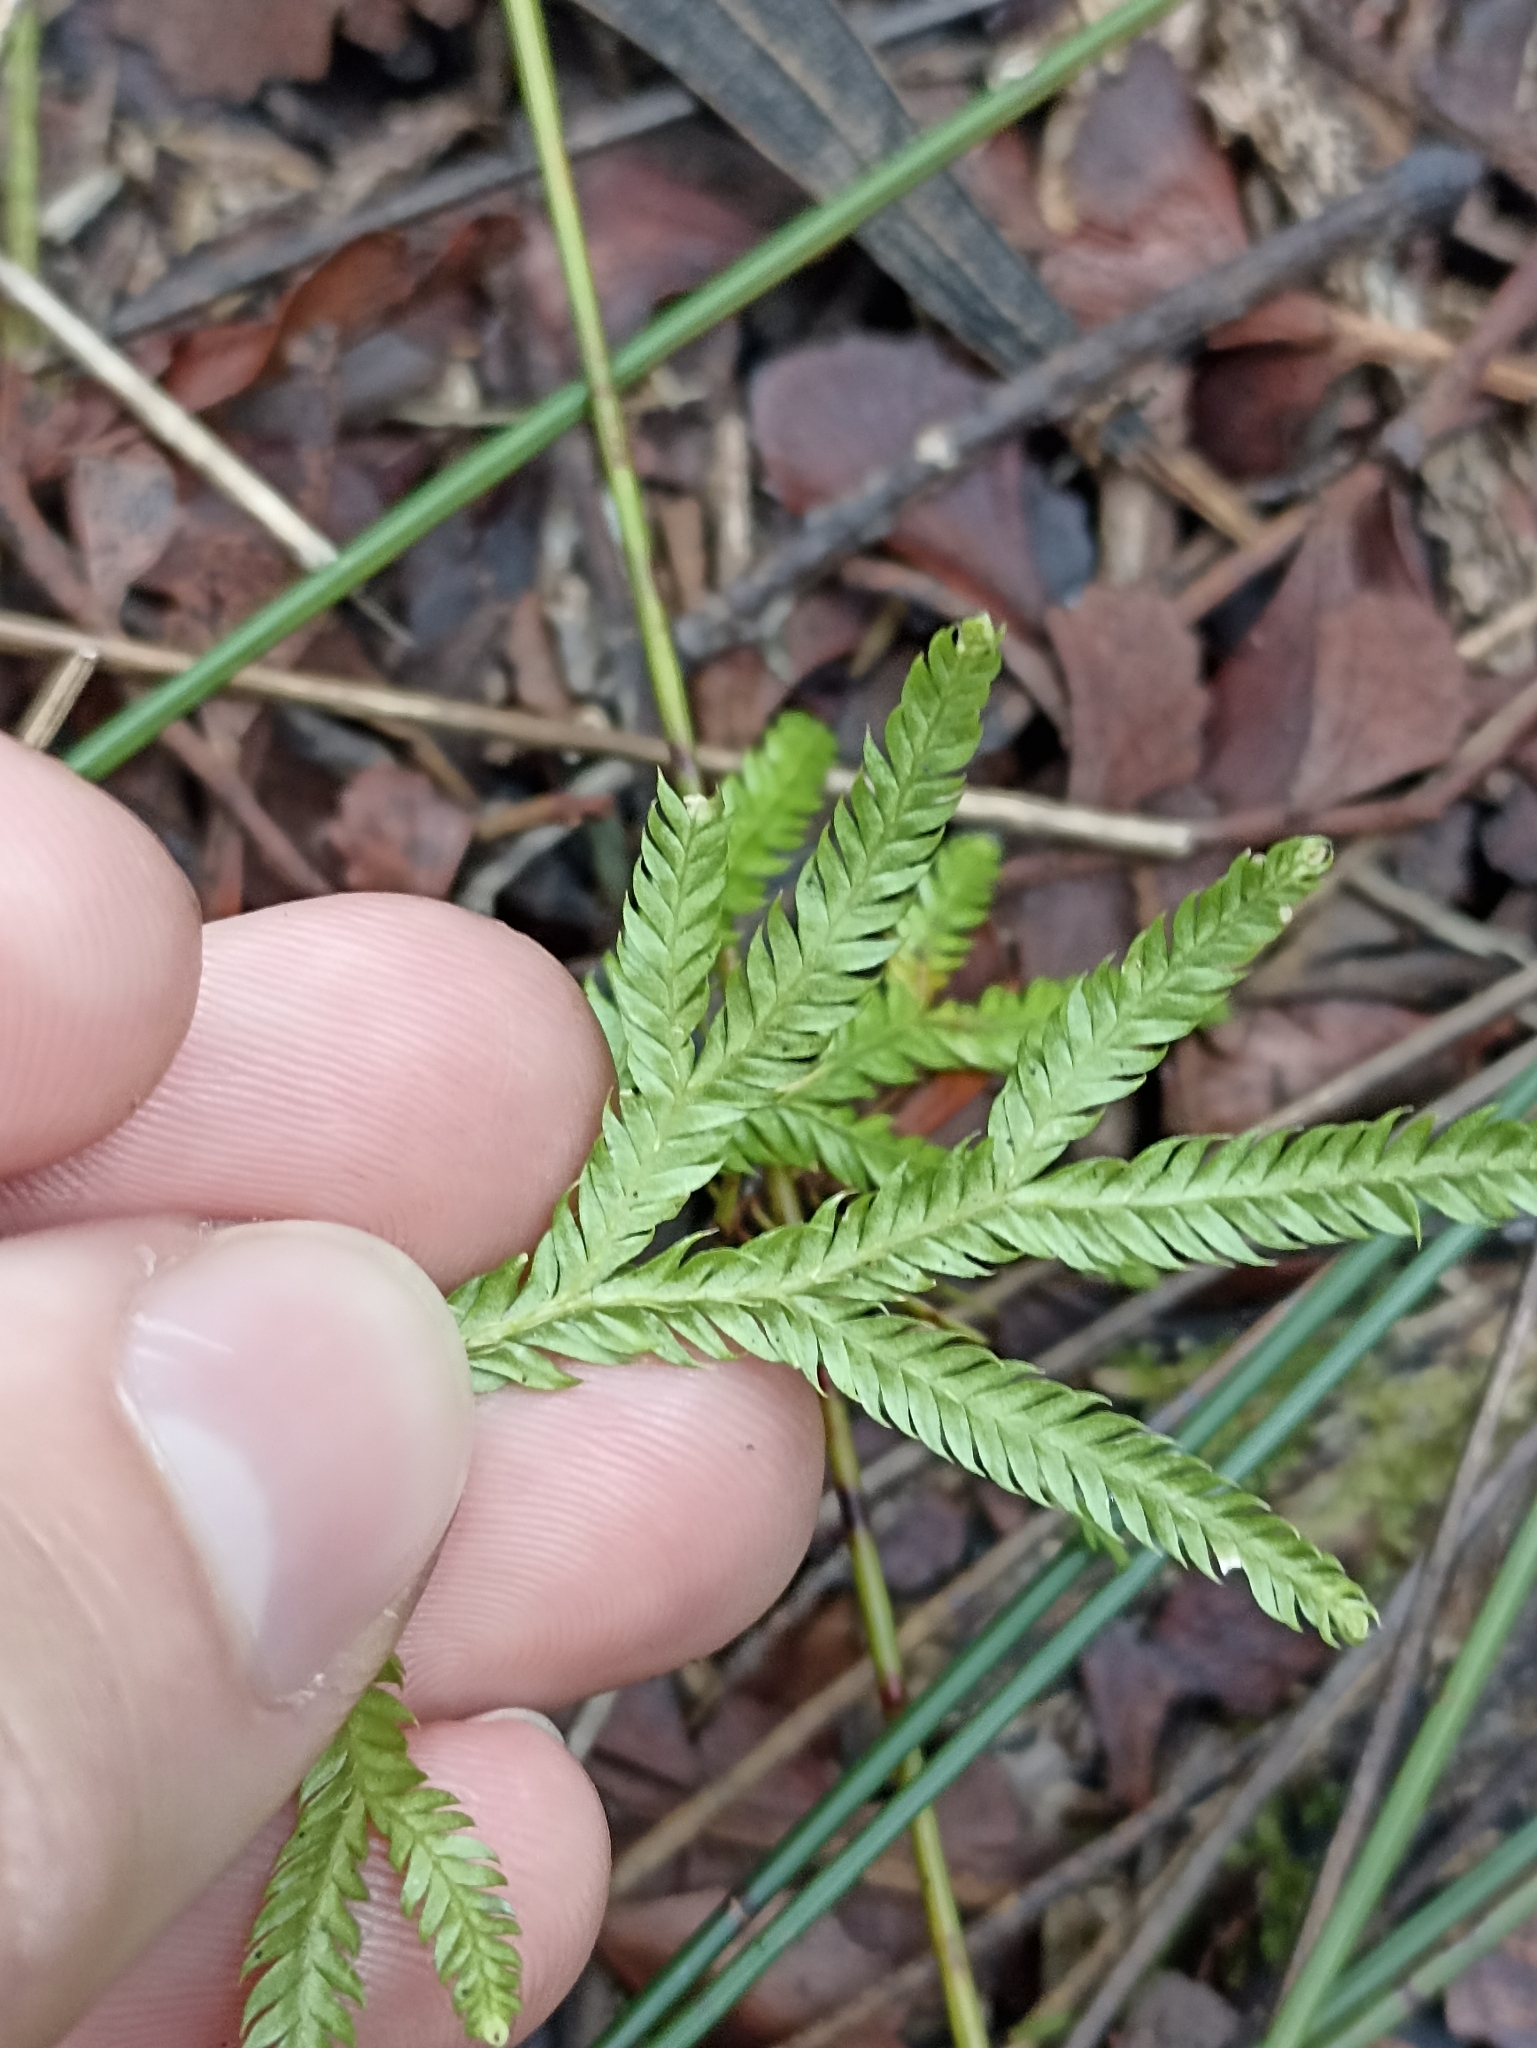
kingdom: Plantae
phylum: Tracheophyta
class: Lycopodiopsida
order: Lycopodiales
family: Lycopodiaceae
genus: Lycopodium
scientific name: Lycopodium volubile
